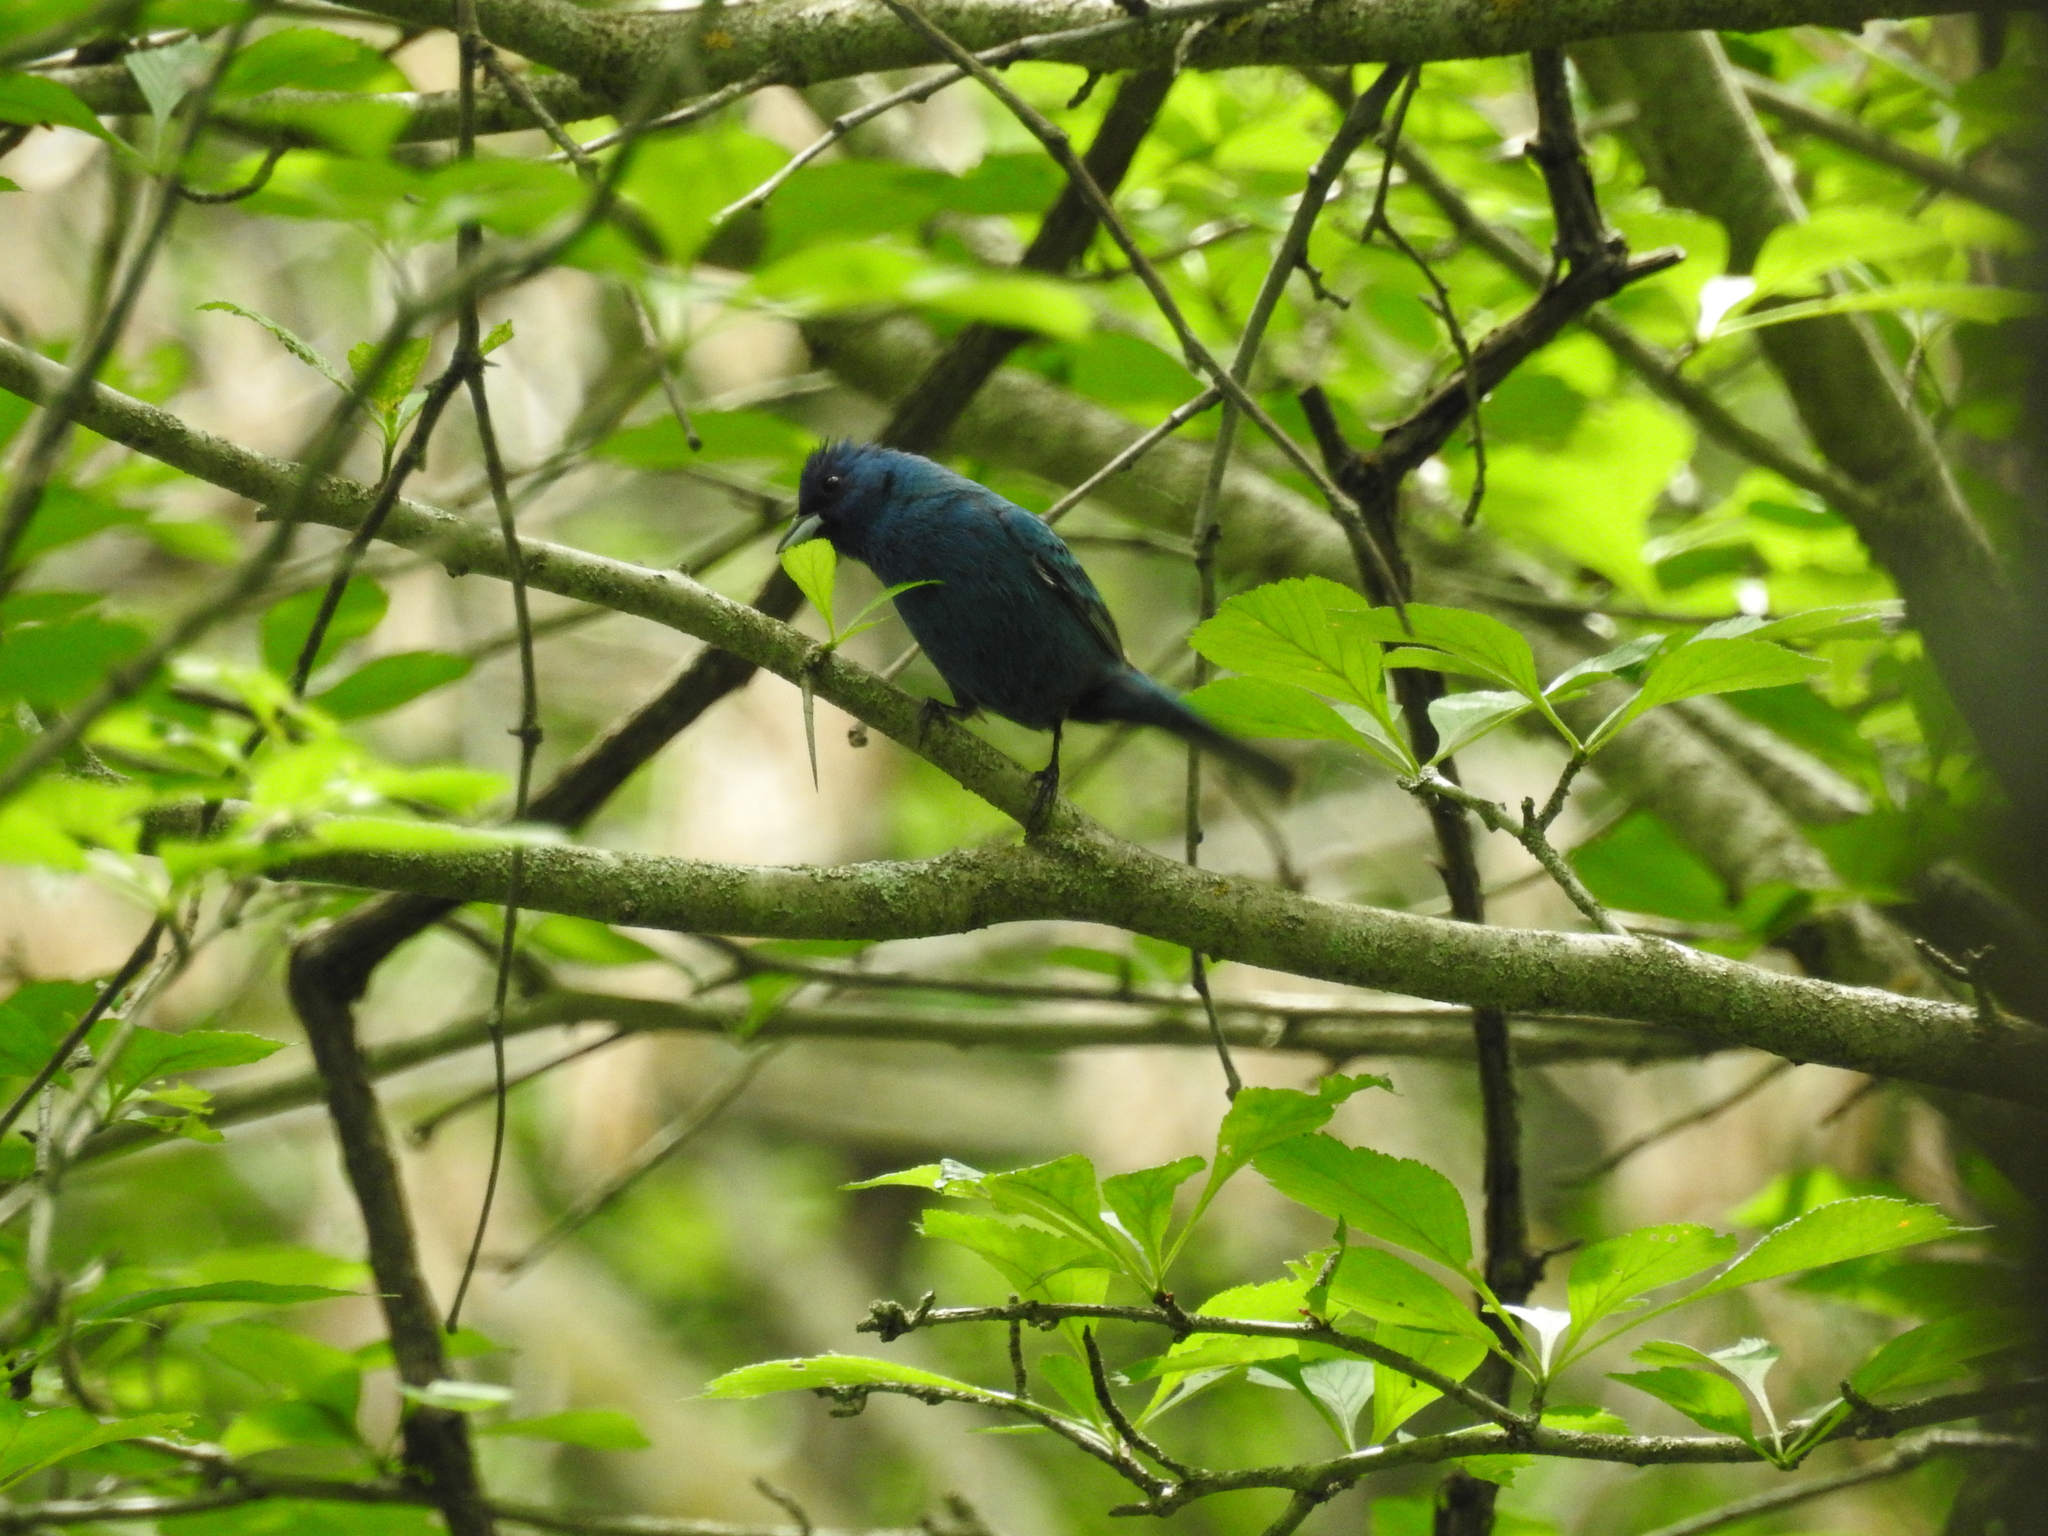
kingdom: Animalia
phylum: Chordata
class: Aves
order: Passeriformes
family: Cardinalidae
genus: Passerina
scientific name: Passerina cyanea
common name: Indigo bunting
